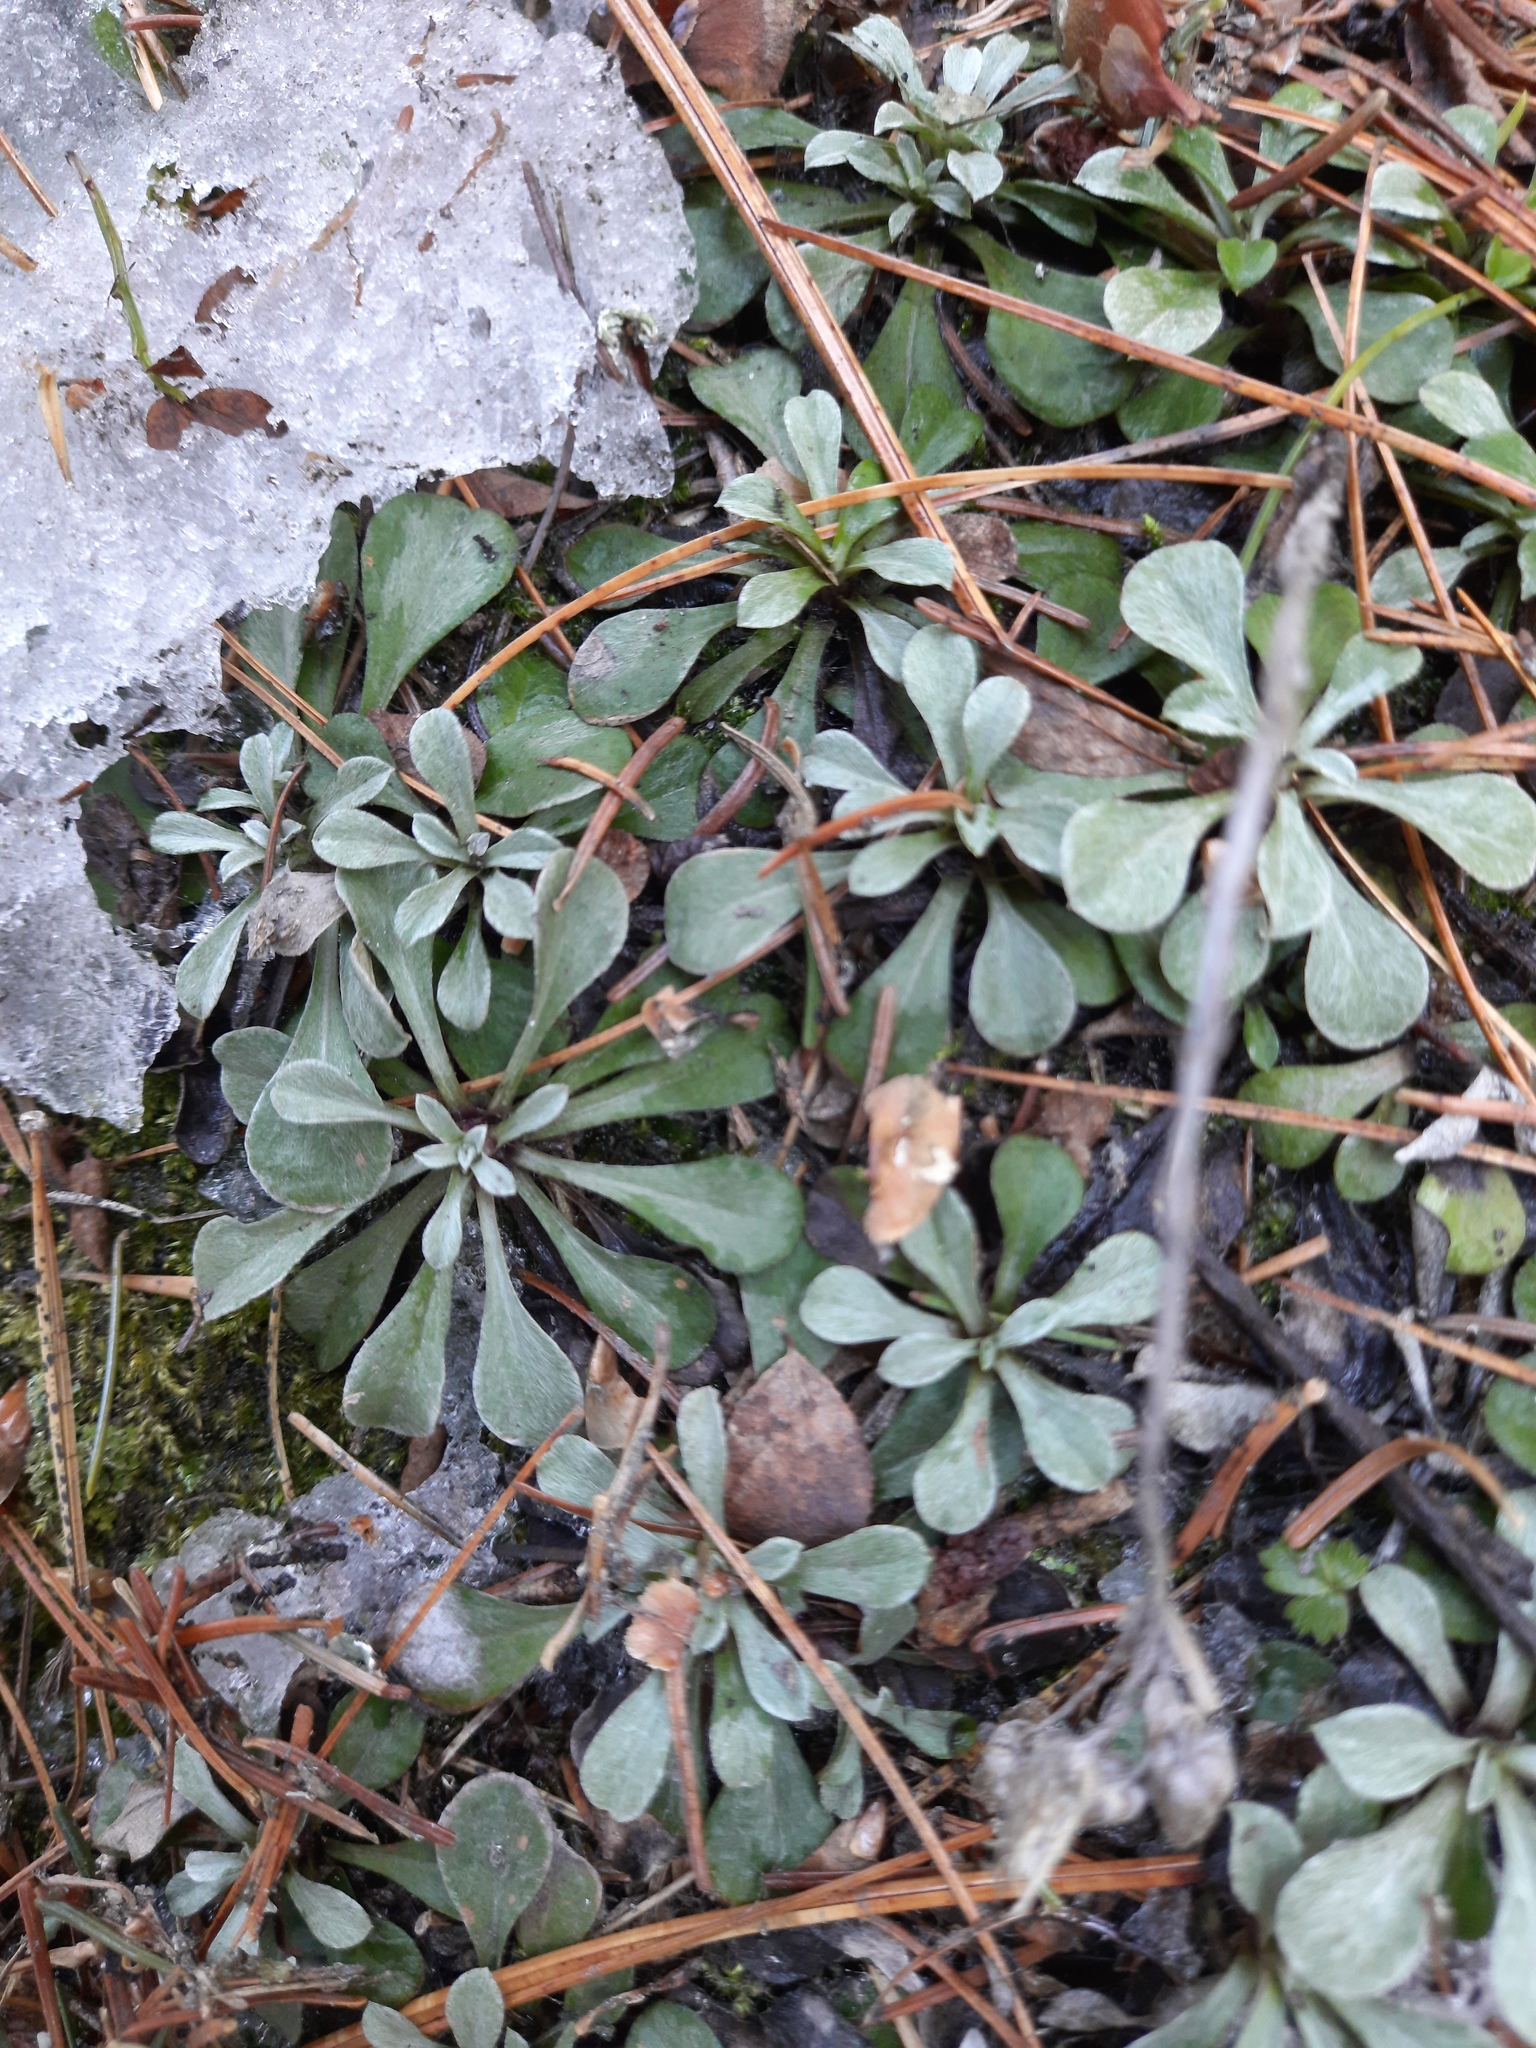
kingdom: Plantae
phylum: Tracheophyta
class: Magnoliopsida
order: Asterales
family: Asteraceae
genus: Antennaria
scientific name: Antennaria dioica
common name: Mountain everlasting
